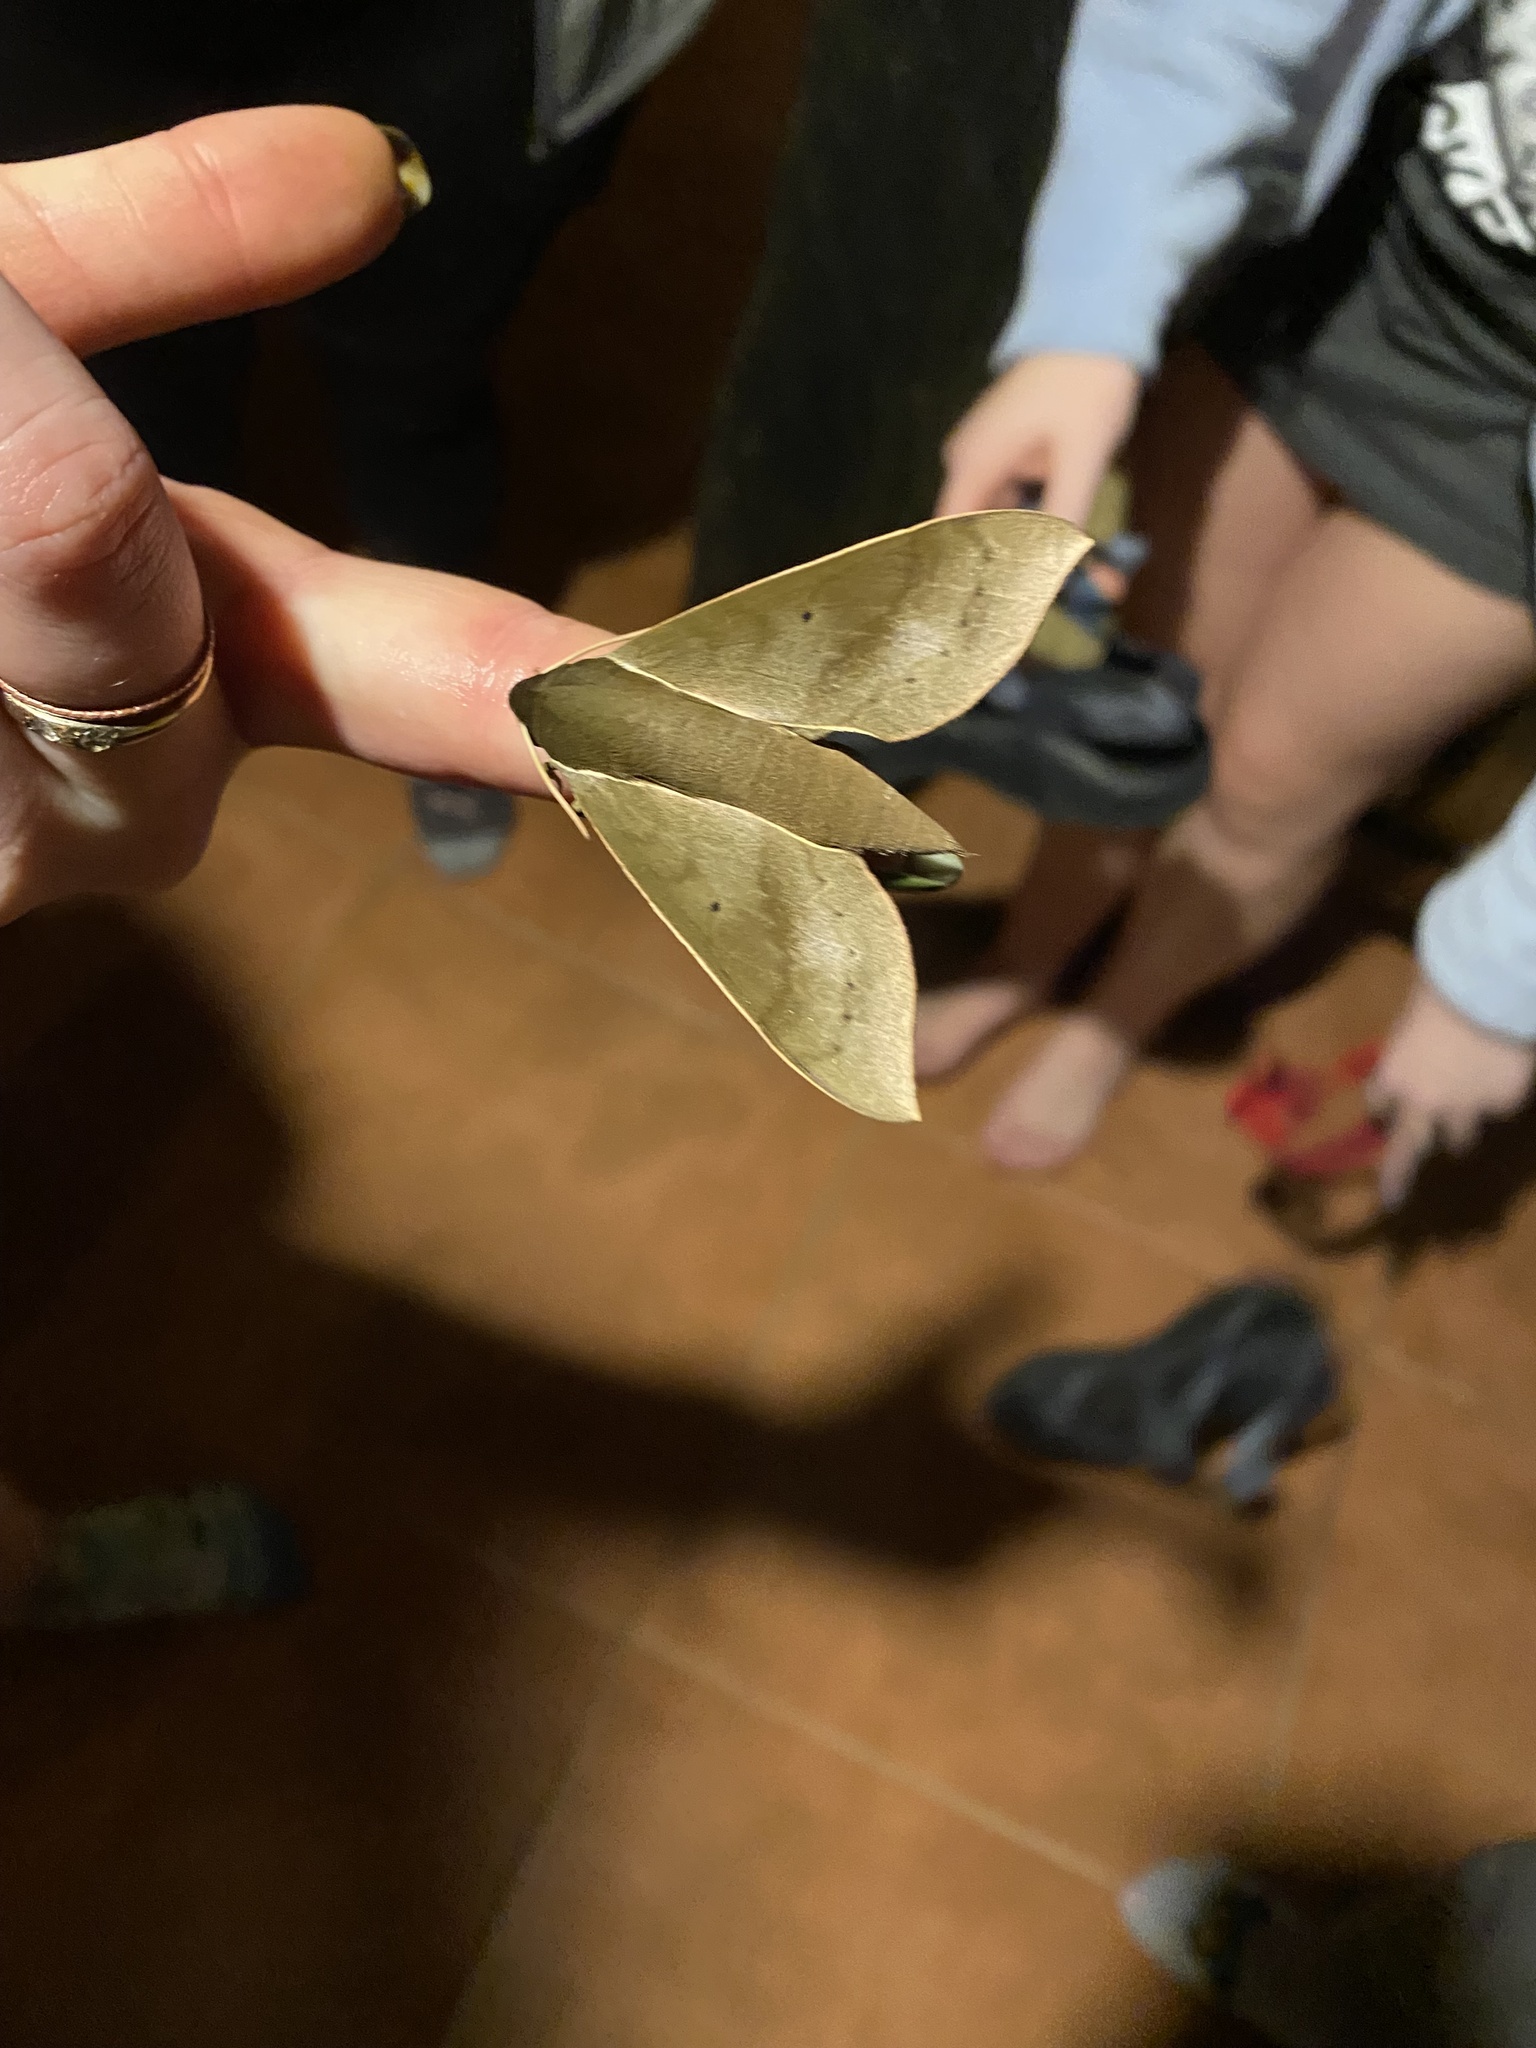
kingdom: Animalia
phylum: Arthropoda
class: Insecta
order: Lepidoptera
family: Sphingidae
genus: Xylophanes
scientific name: Xylophanes porcus
